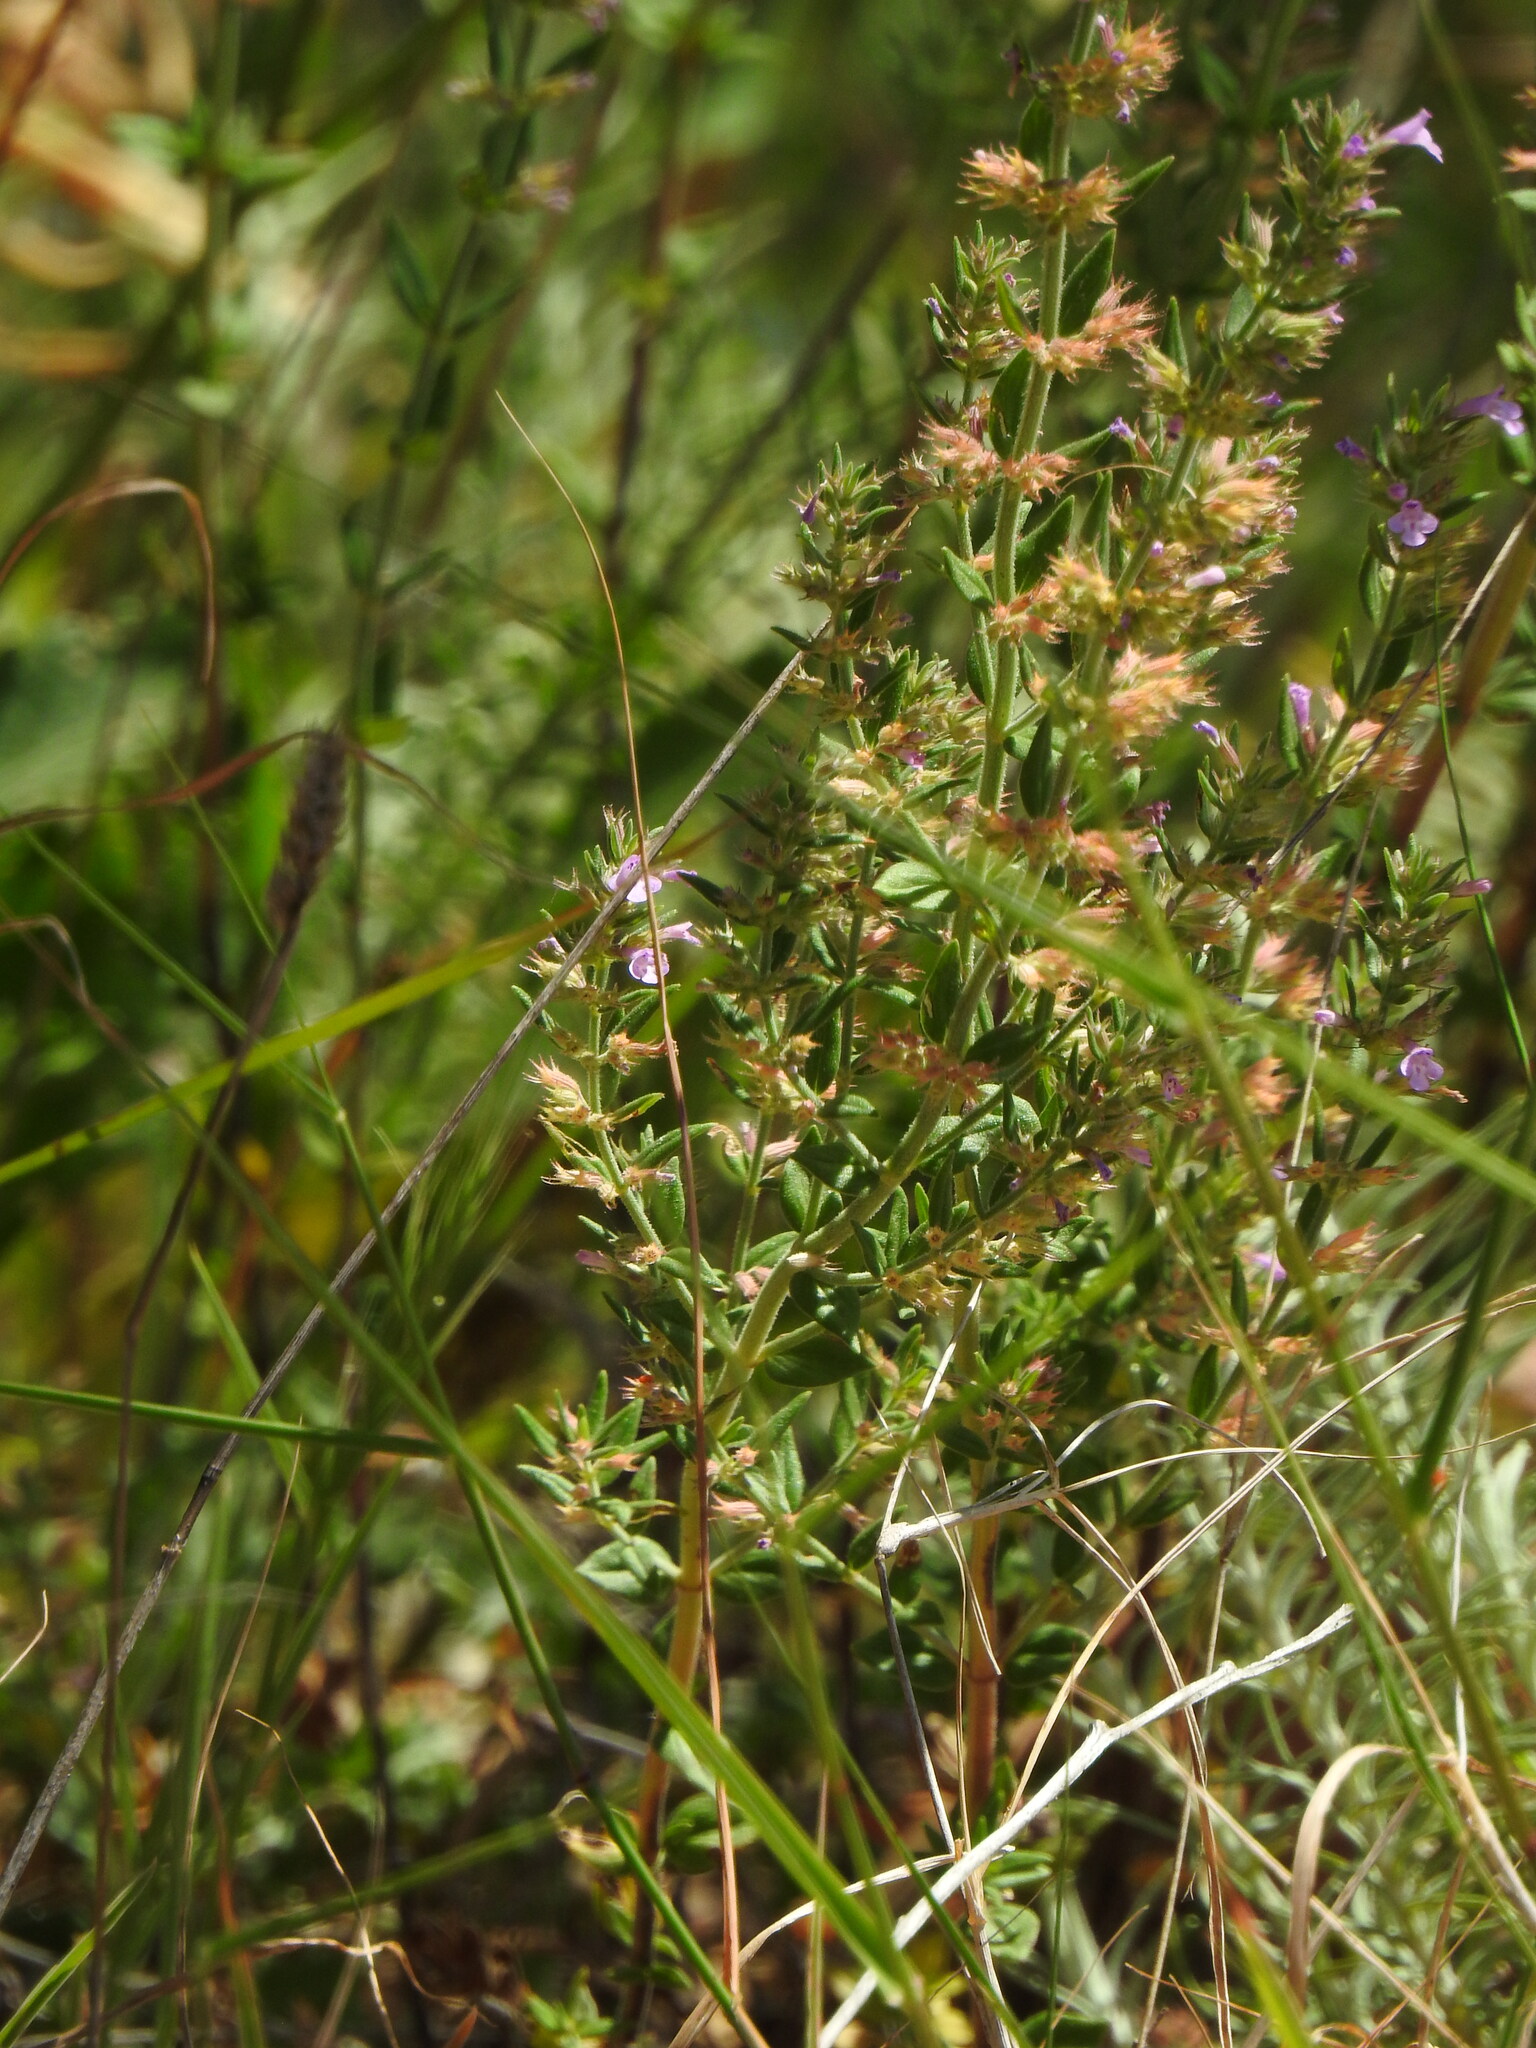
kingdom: Plantae
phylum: Tracheophyta
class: Magnoliopsida
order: Lamiales
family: Lamiaceae
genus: Micromeria
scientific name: Micromeria graeca
